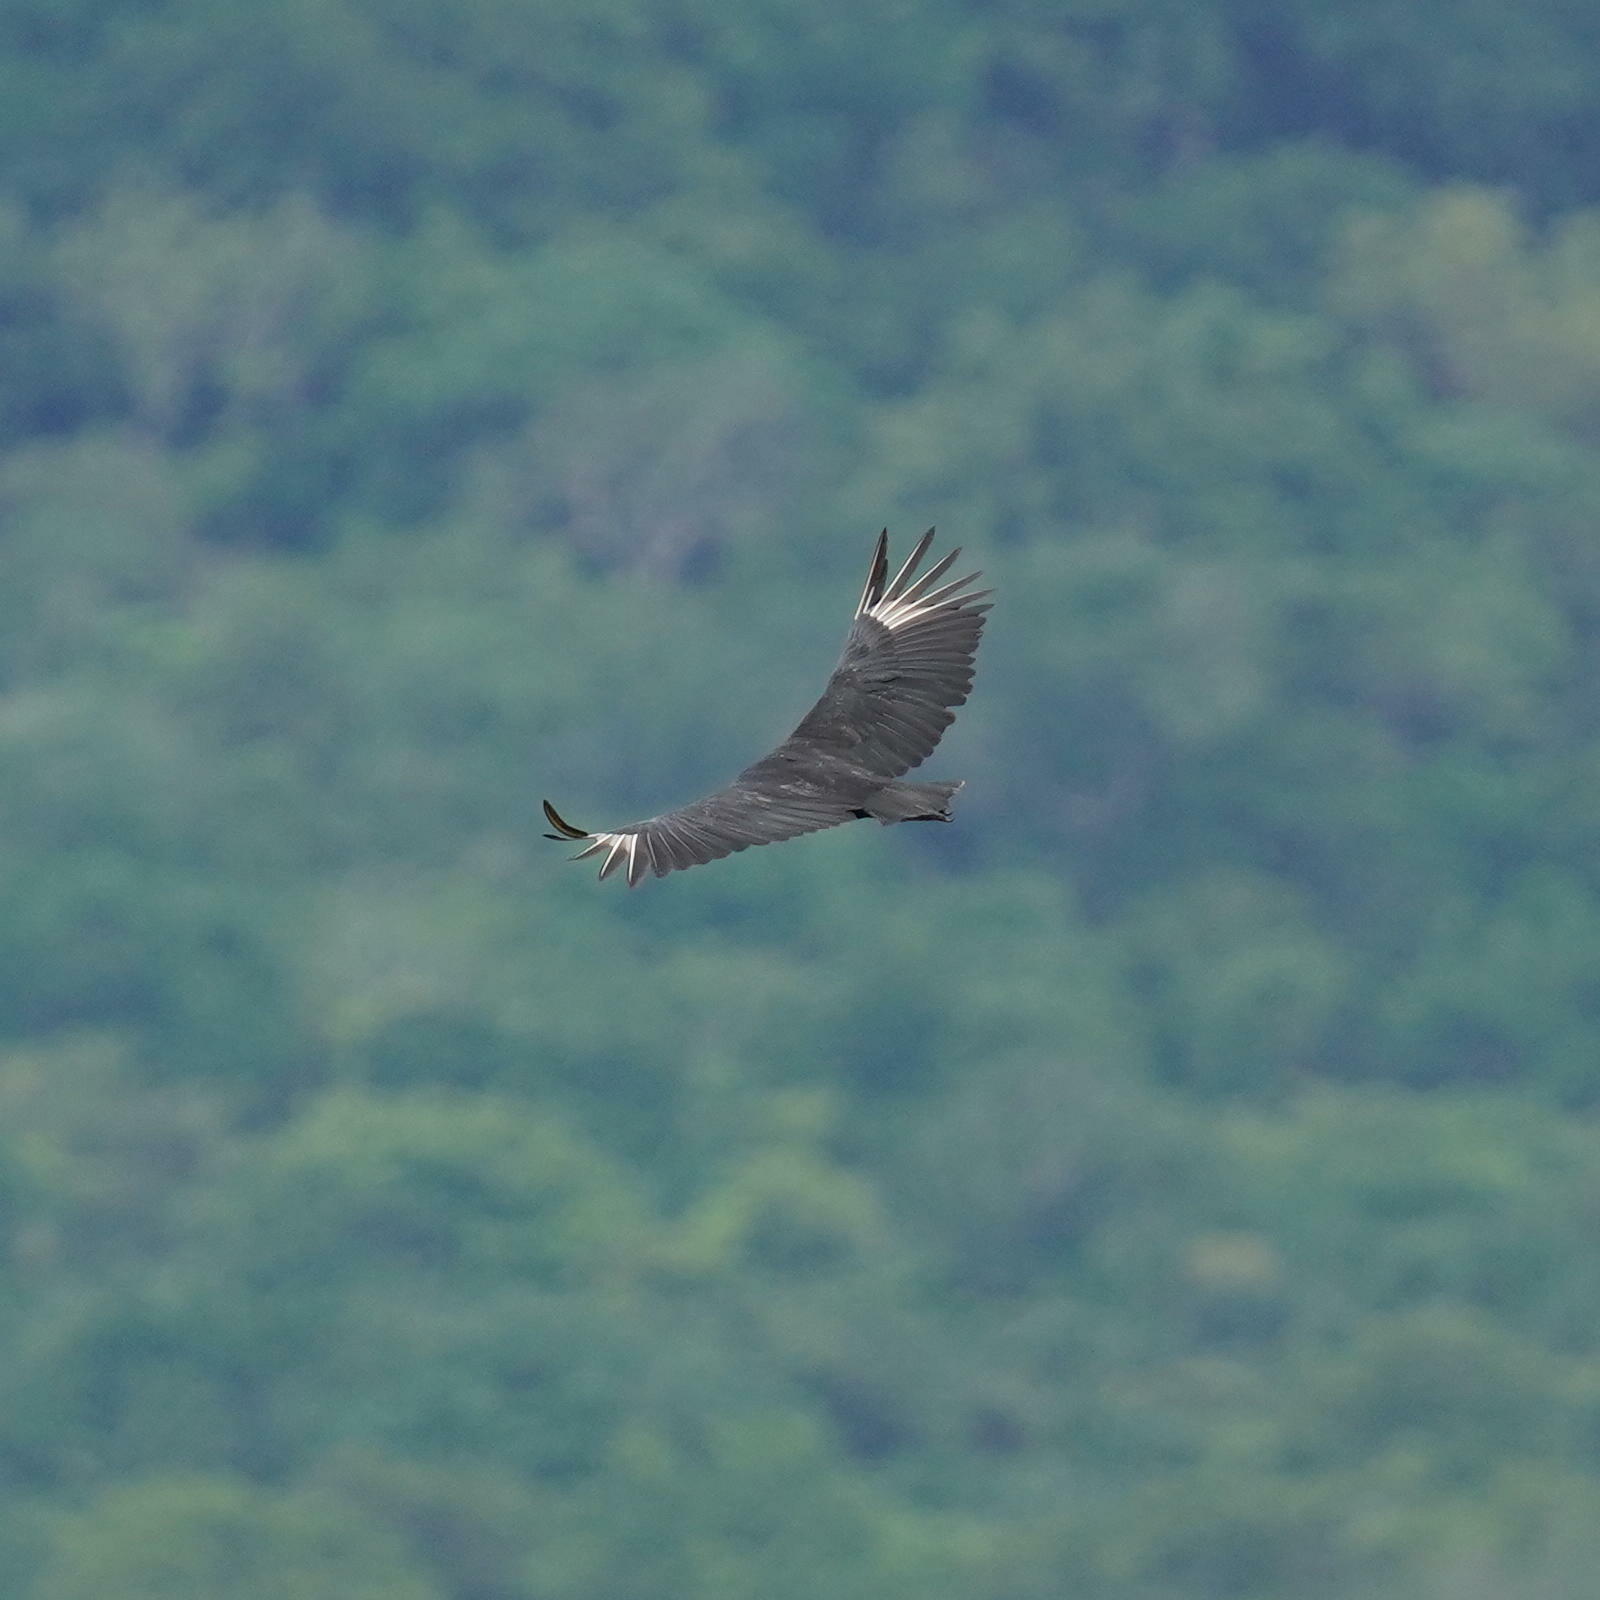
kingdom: Animalia
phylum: Chordata
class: Aves
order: Accipitriformes
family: Cathartidae
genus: Coragyps
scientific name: Coragyps atratus
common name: Black vulture
